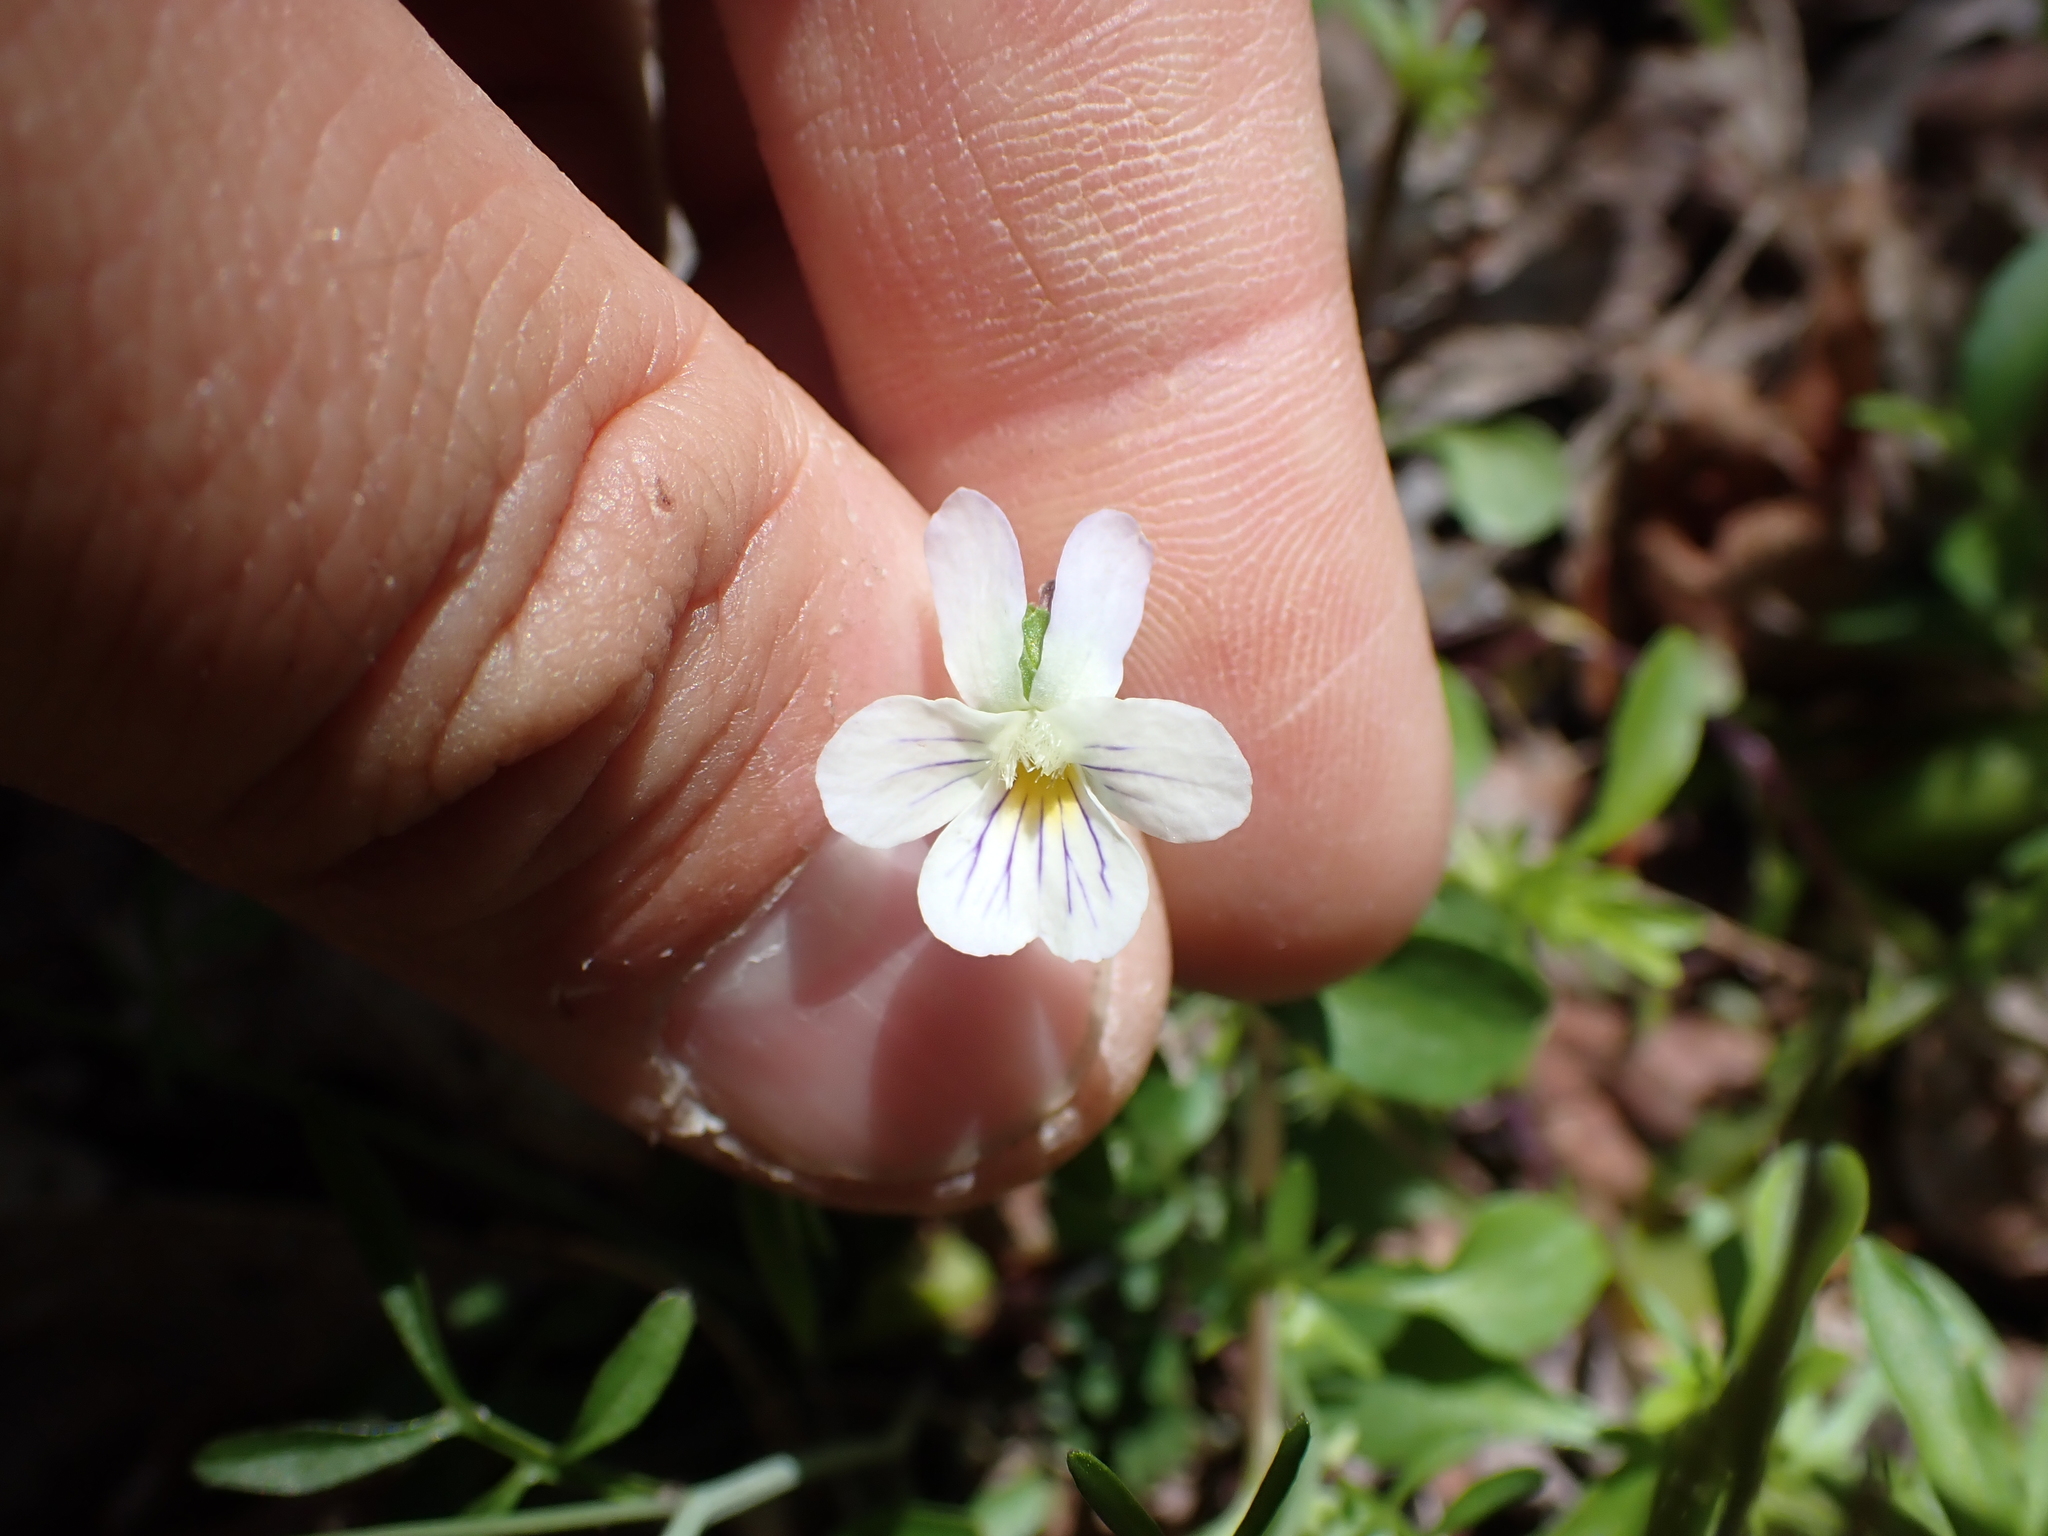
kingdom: Plantae
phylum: Tracheophyta
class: Magnoliopsida
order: Malpighiales
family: Violaceae
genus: Viola
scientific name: Viola rafinesquei
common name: American field pansy
